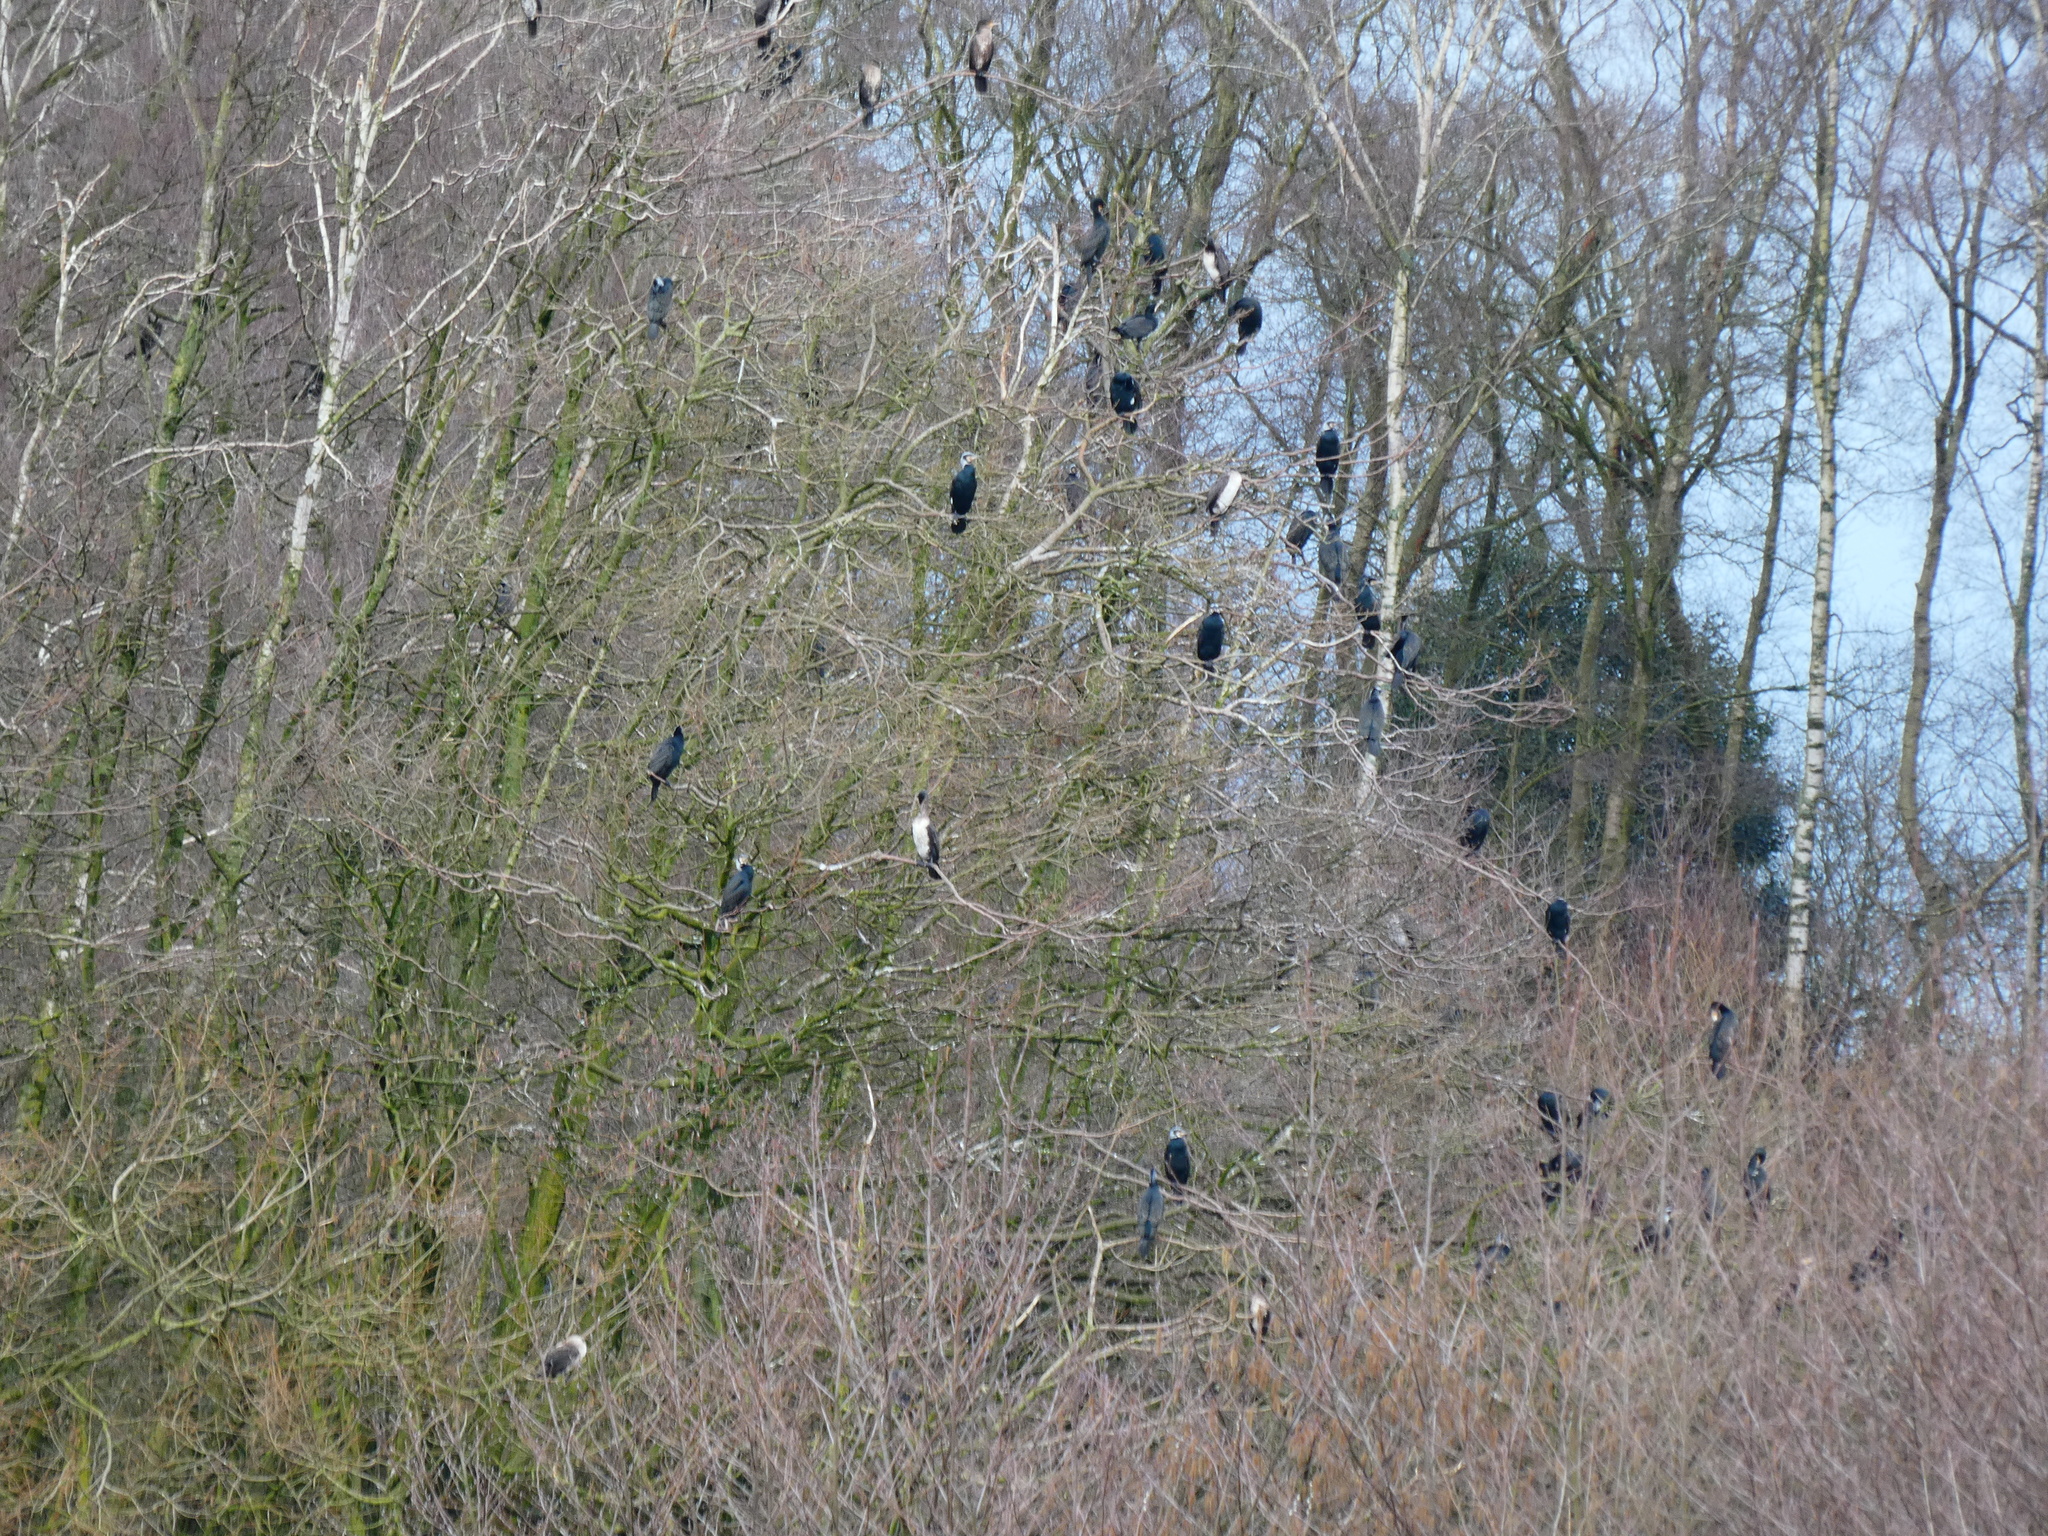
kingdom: Animalia
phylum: Chordata
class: Aves
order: Suliformes
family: Phalacrocoracidae
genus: Phalacrocorax
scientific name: Phalacrocorax carbo
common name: Great cormorant
